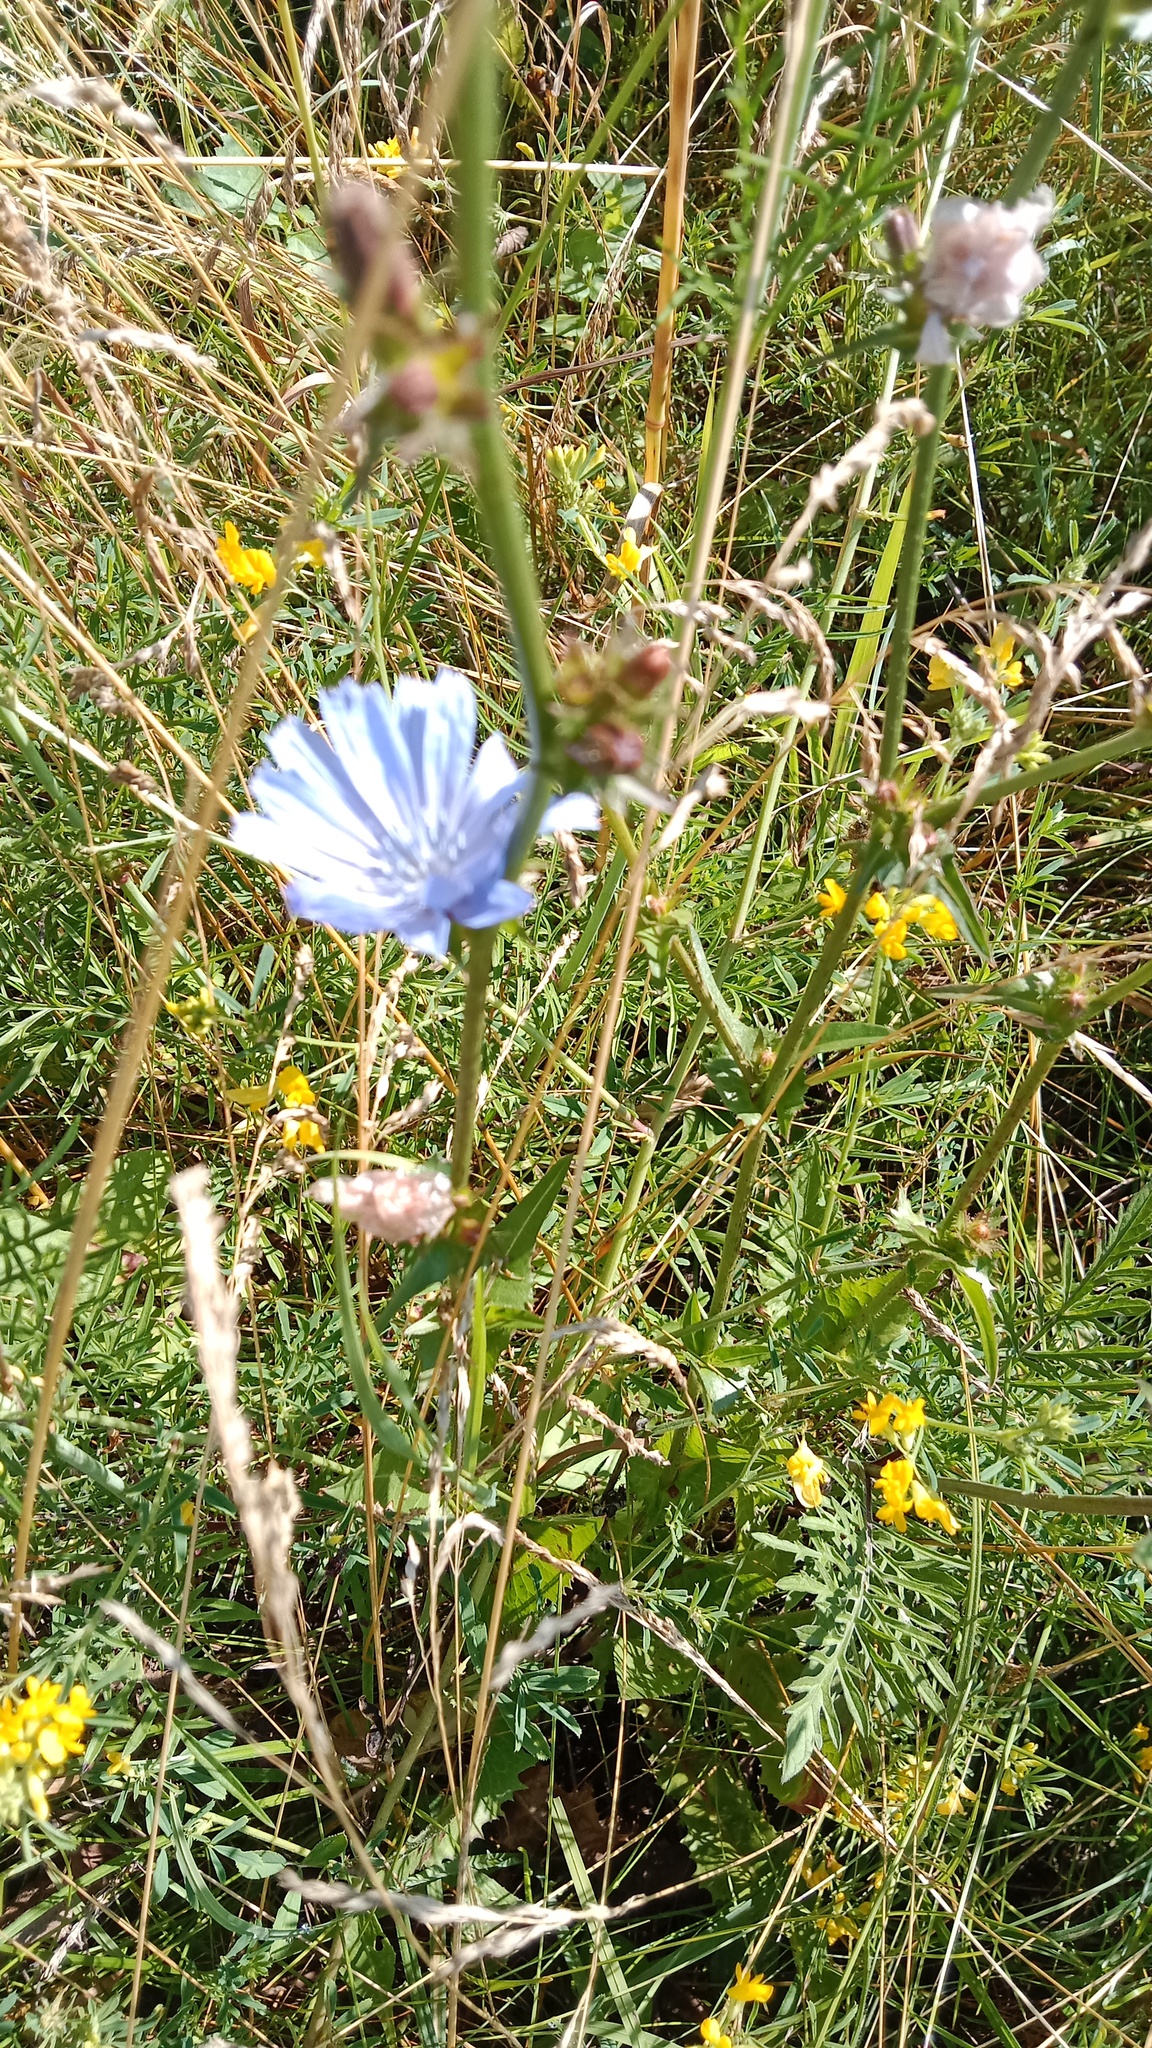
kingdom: Plantae
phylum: Tracheophyta
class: Magnoliopsida
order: Asterales
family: Asteraceae
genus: Cichorium
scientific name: Cichorium intybus
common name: Chicory
